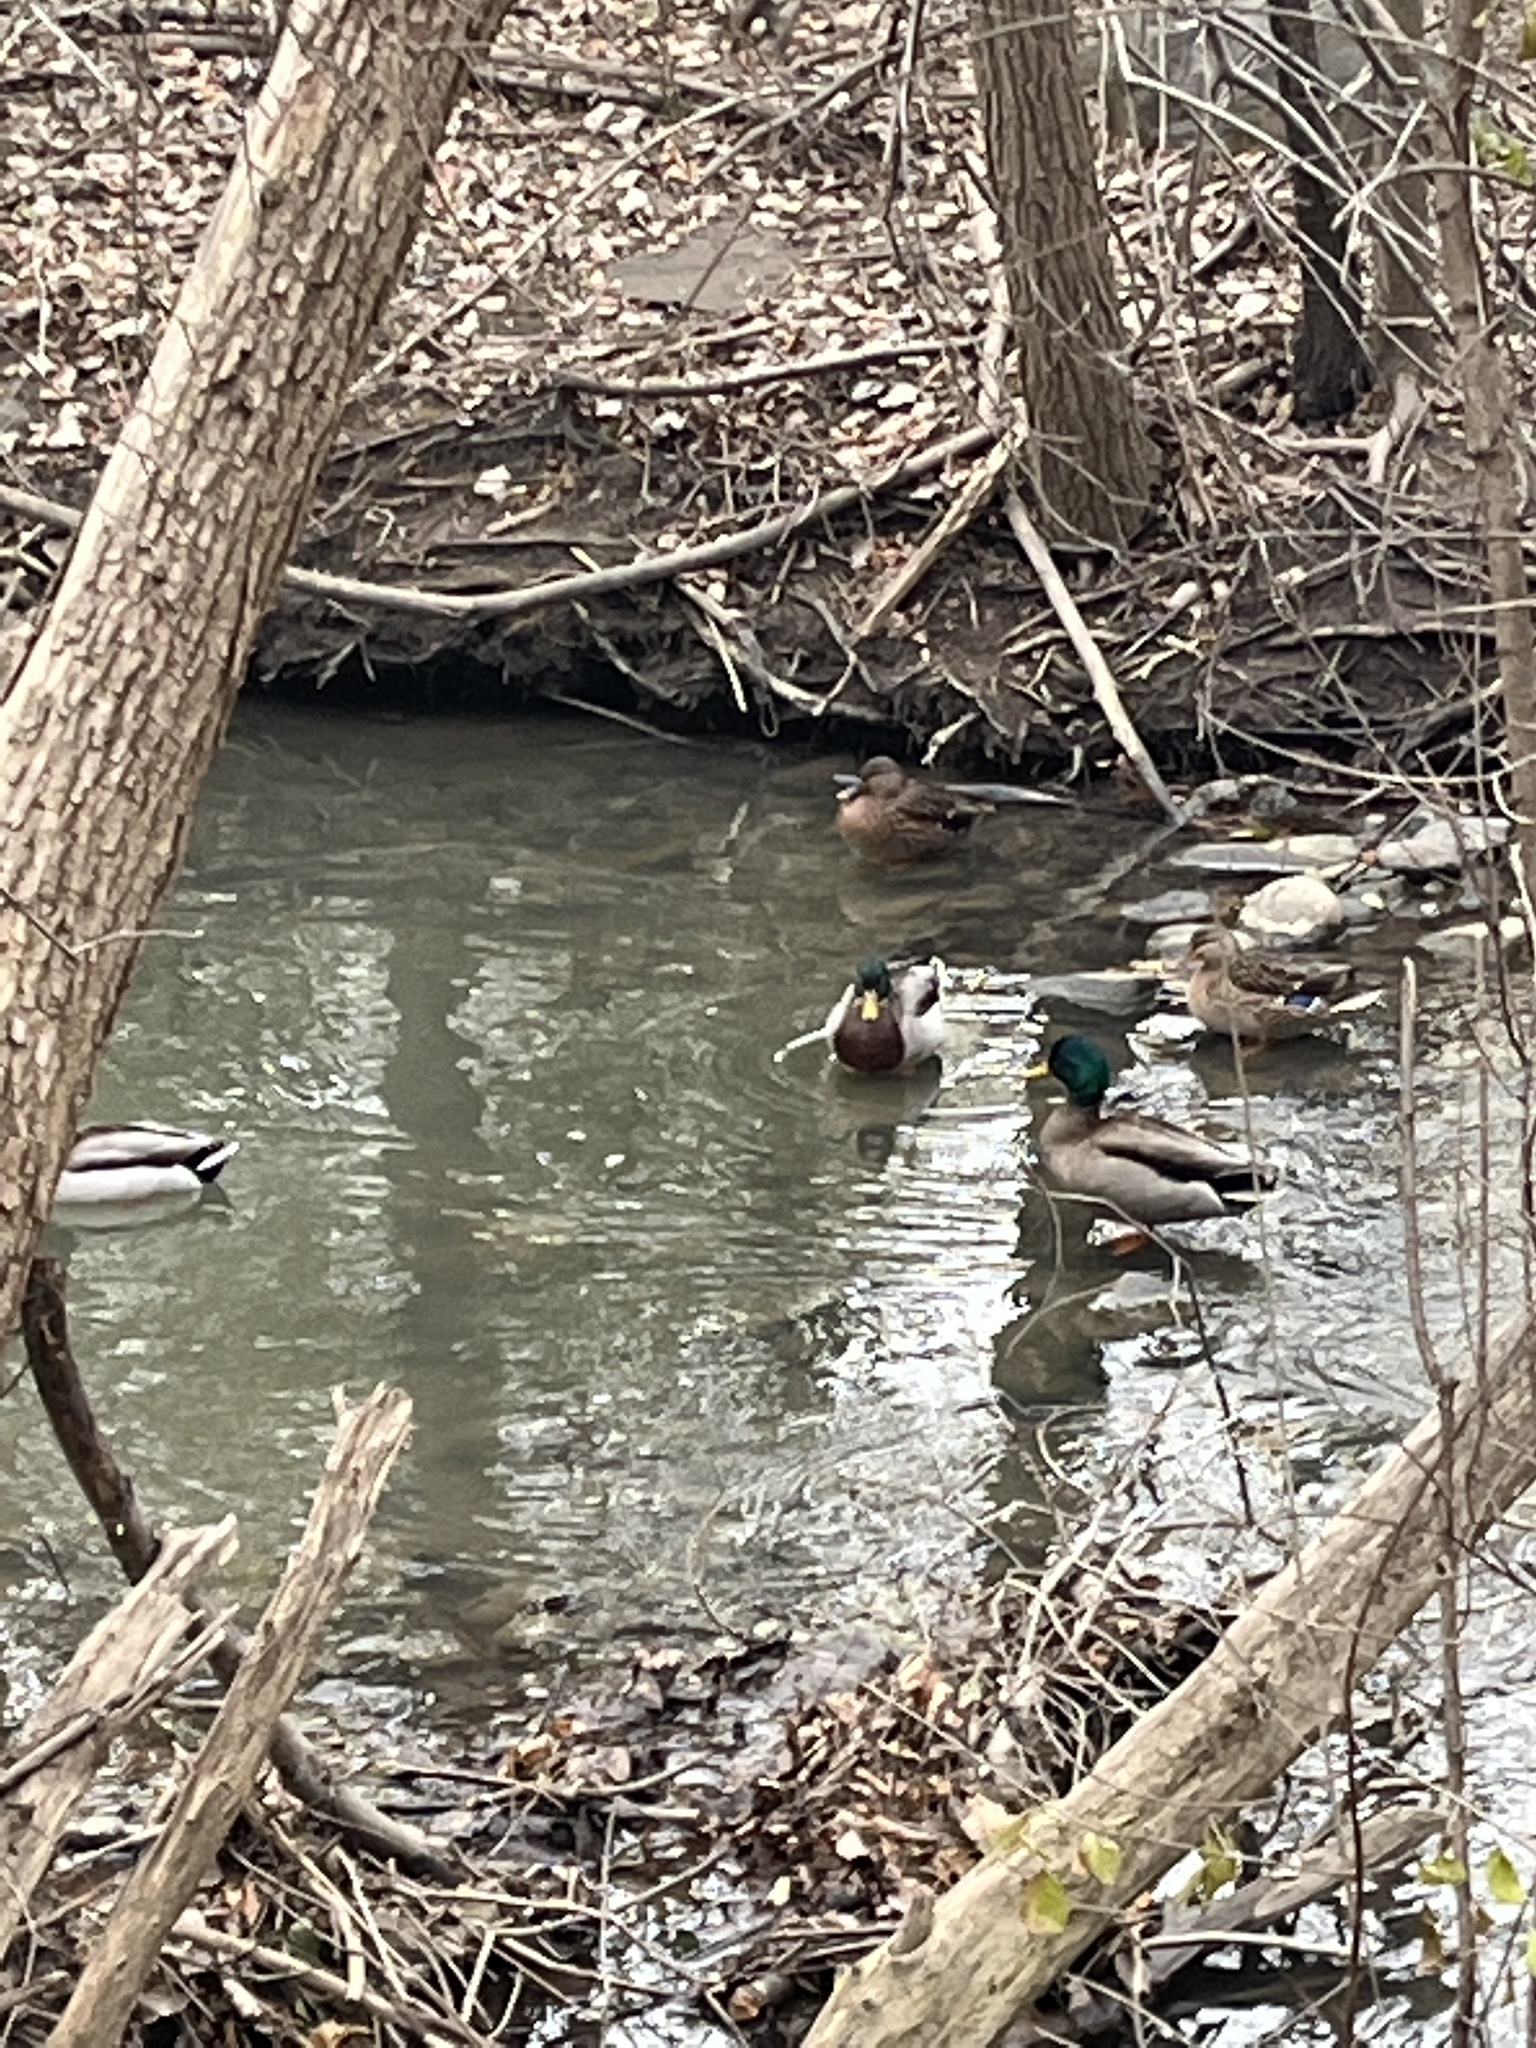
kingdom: Animalia
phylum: Chordata
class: Aves
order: Anseriformes
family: Anatidae
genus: Anas
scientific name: Anas platyrhynchos
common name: Mallard
